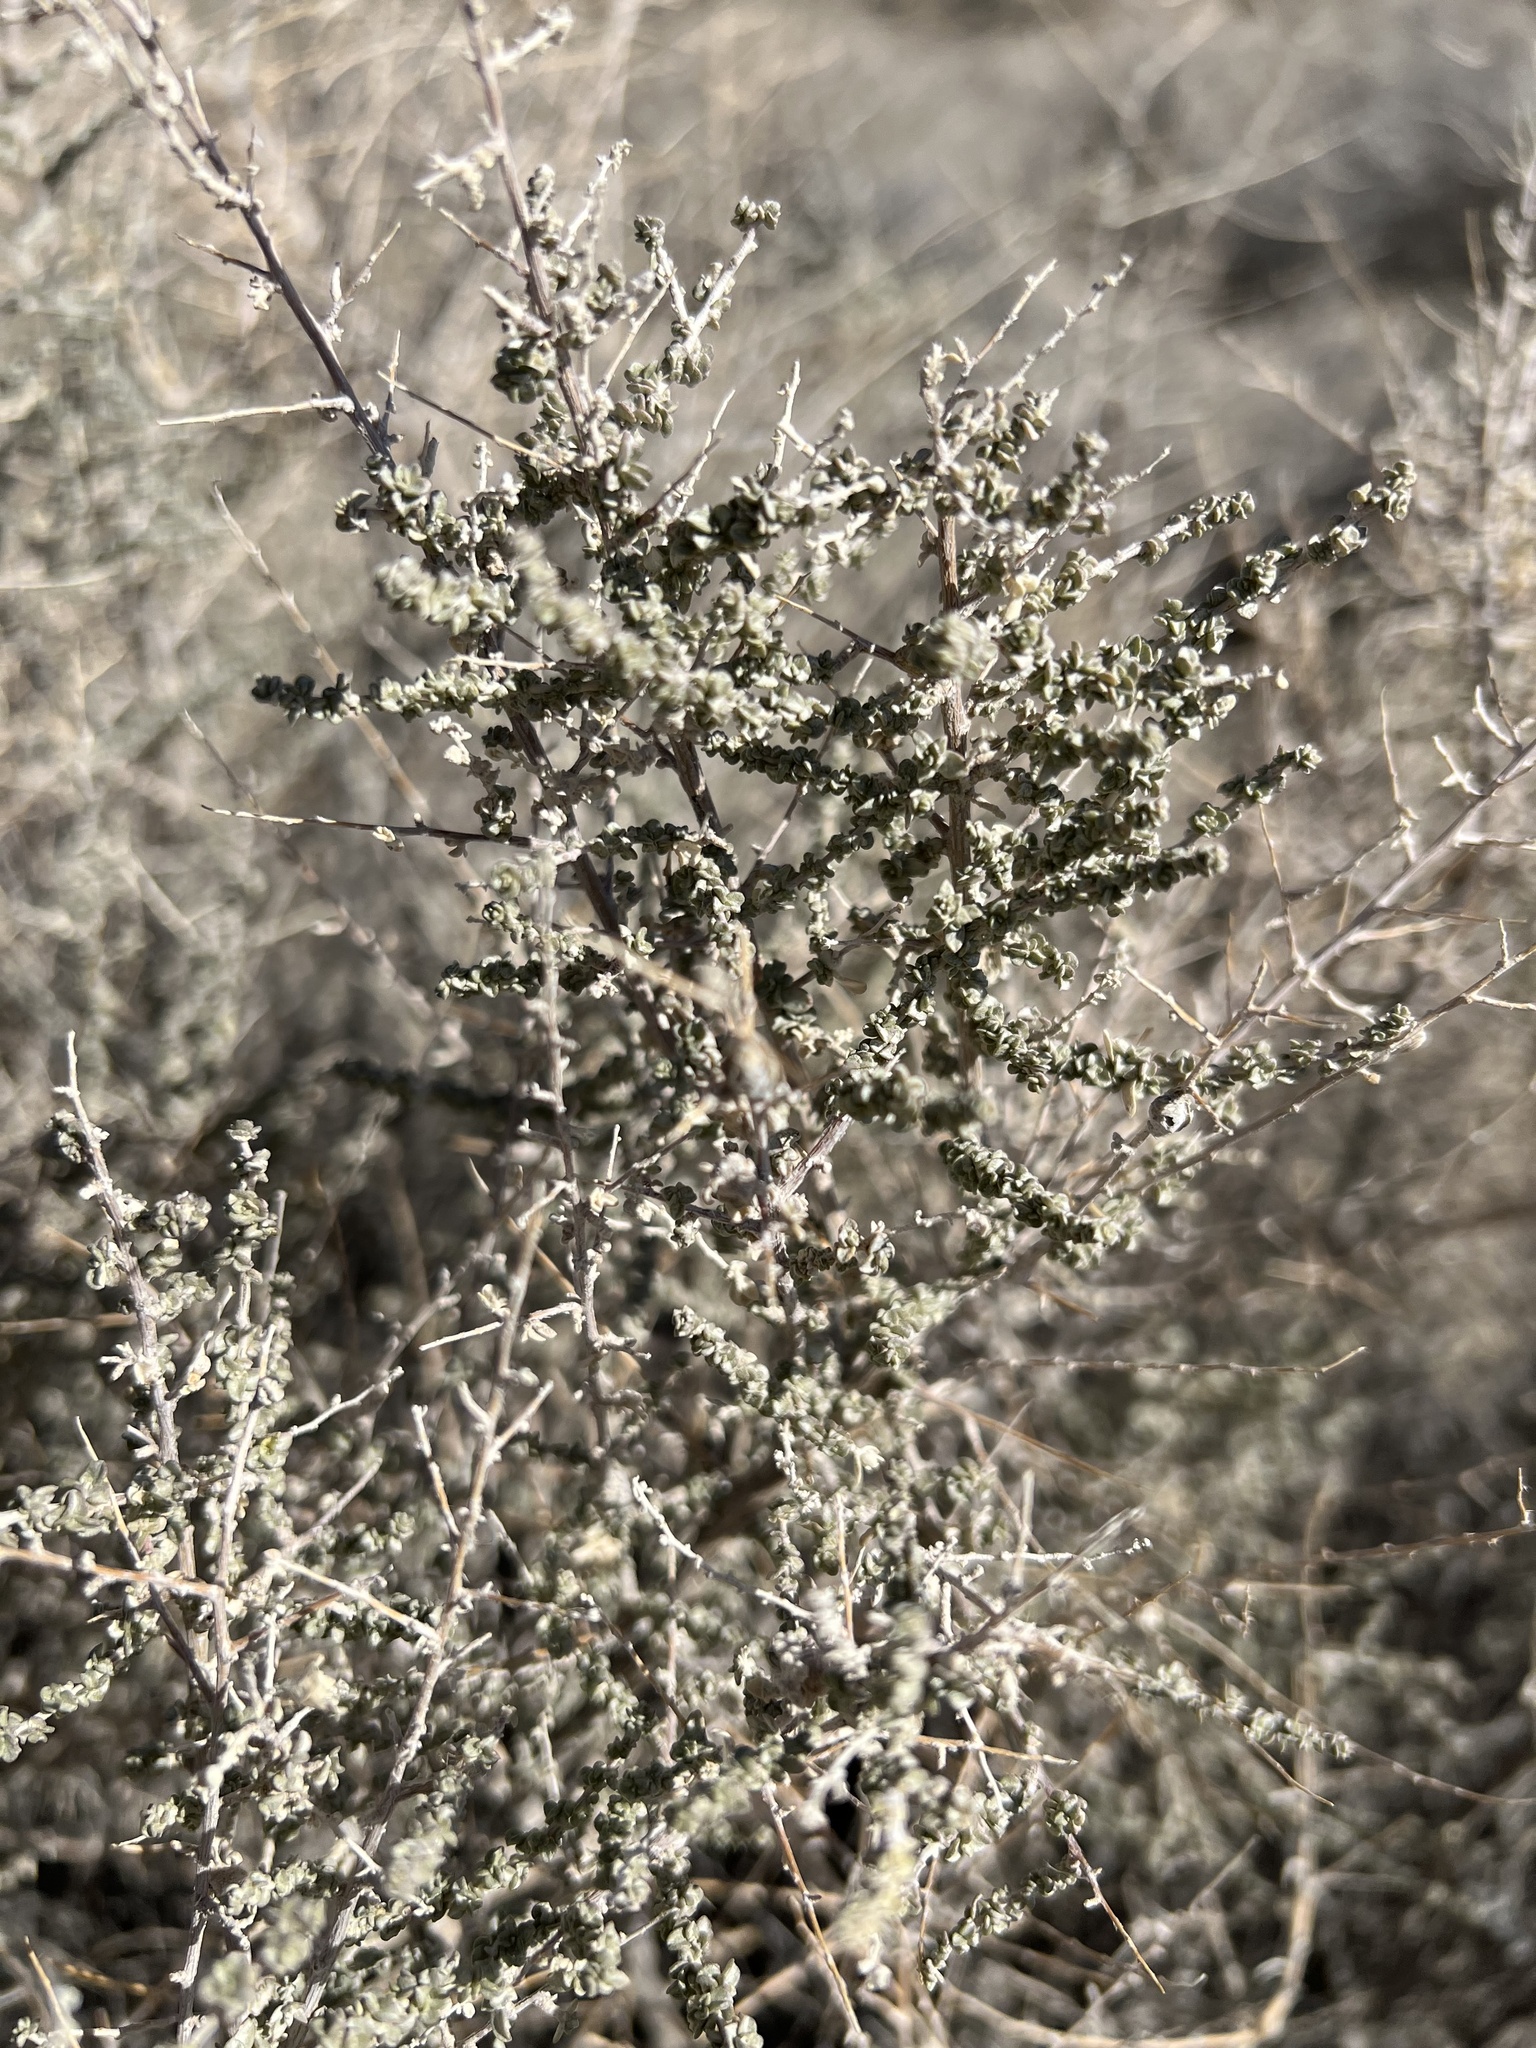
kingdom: Plantae
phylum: Tracheophyta
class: Magnoliopsida
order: Caryophyllales
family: Amaranthaceae
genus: Atriplex
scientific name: Atriplex polycarpa
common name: Desert saltbush
